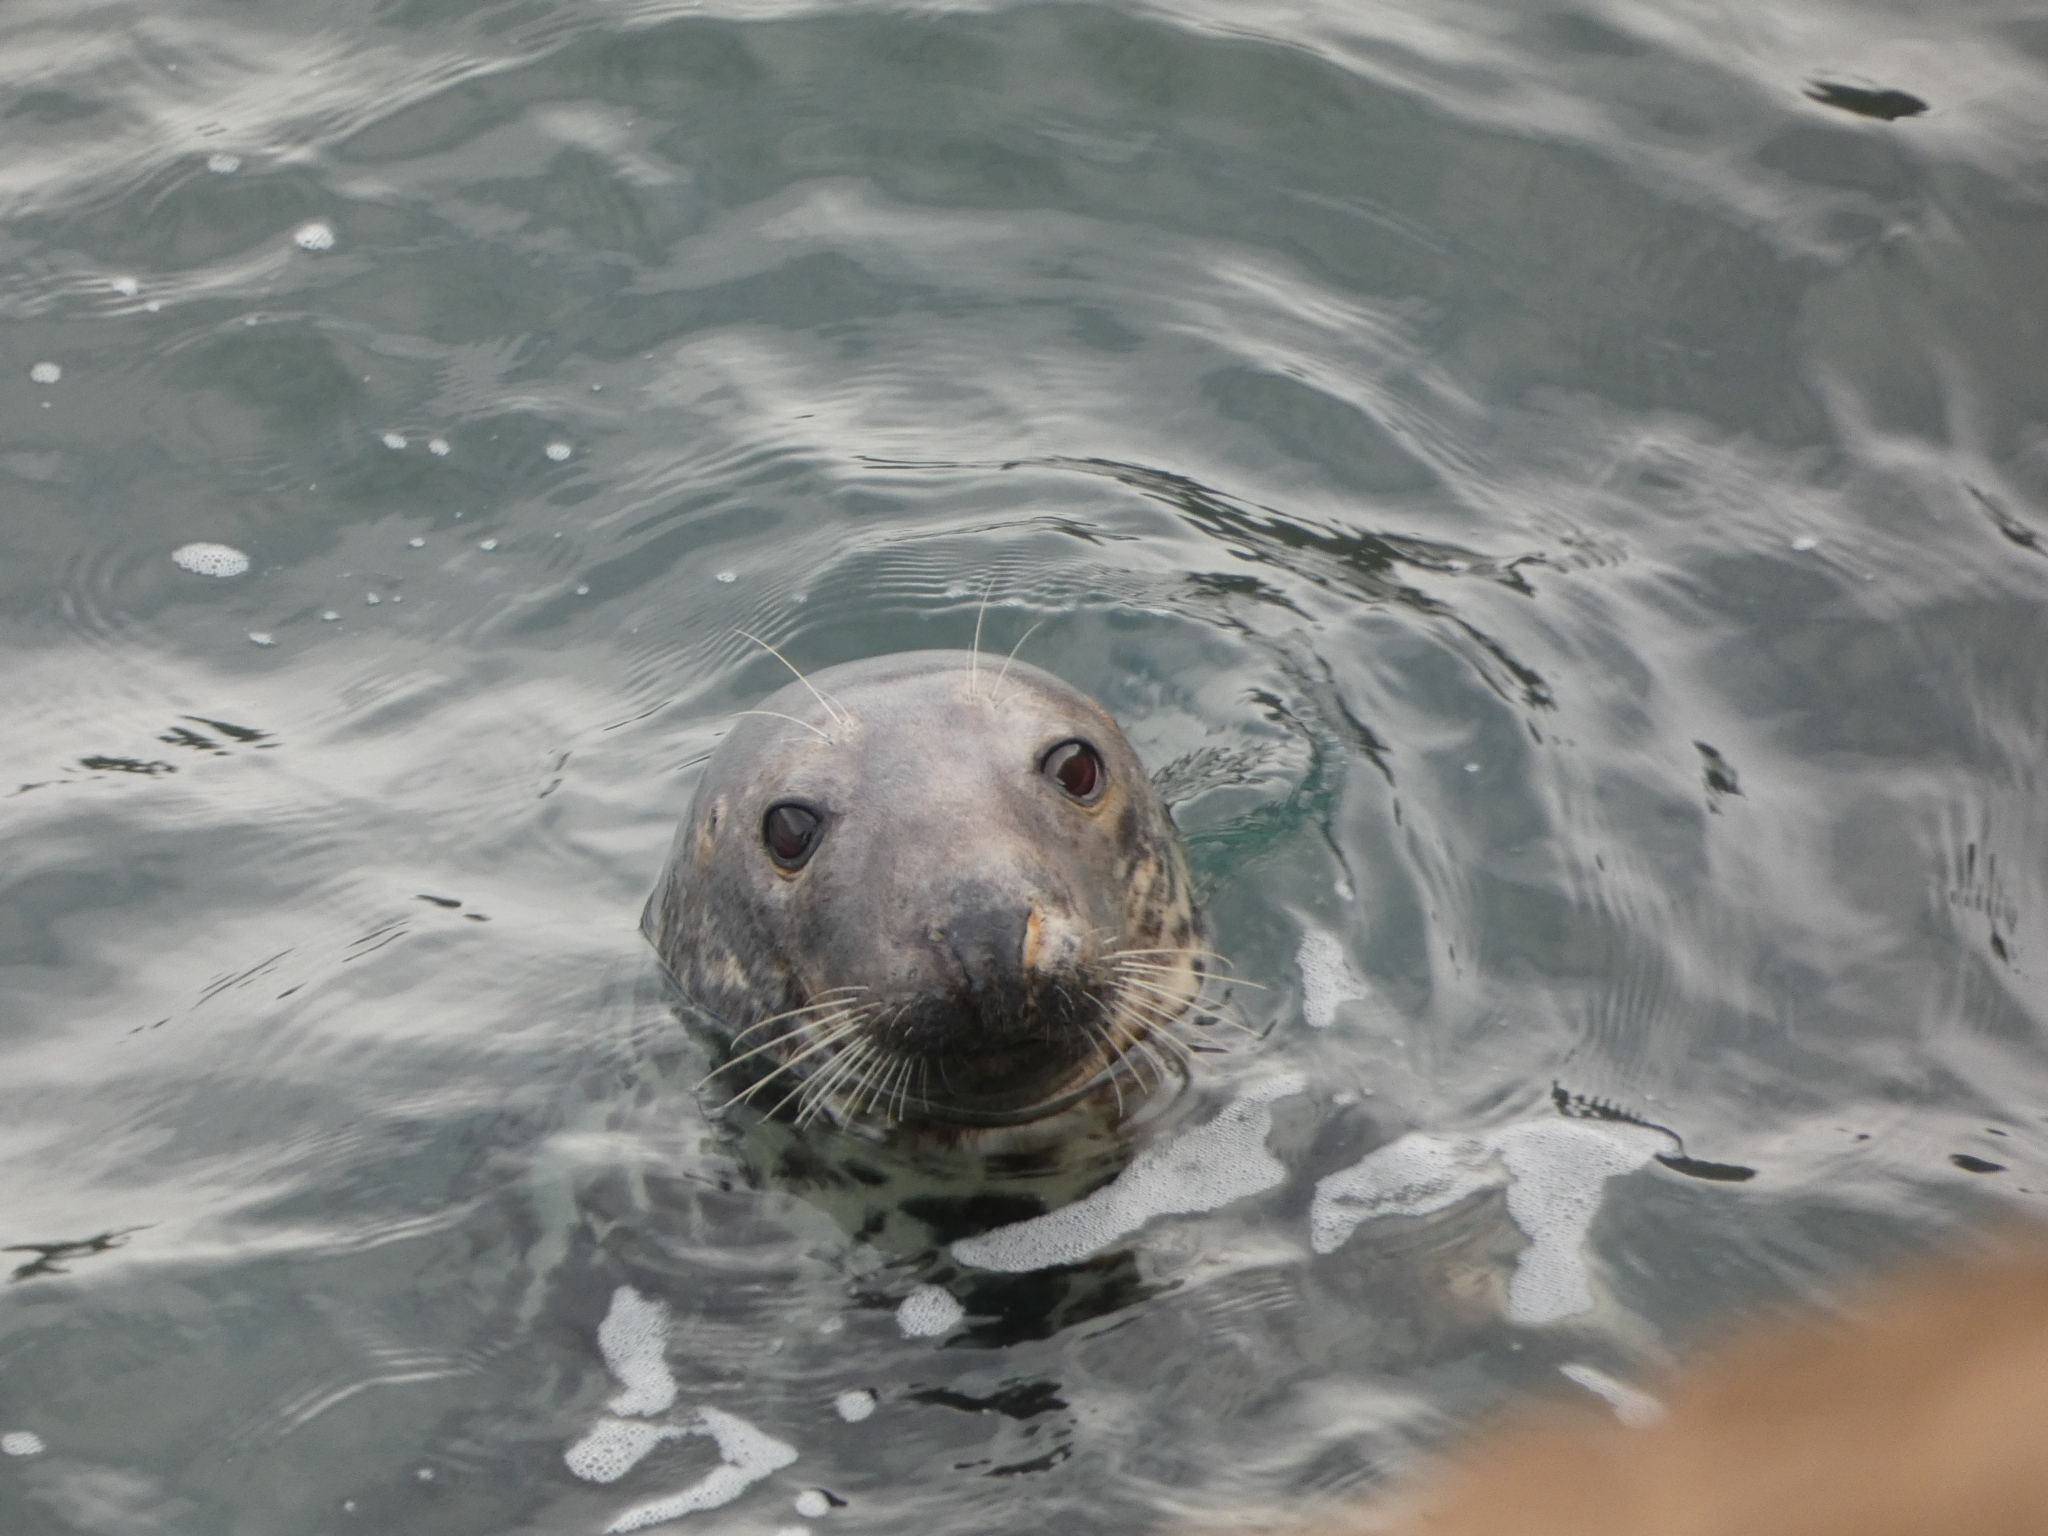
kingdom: Animalia
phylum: Chordata
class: Mammalia
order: Carnivora
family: Phocidae
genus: Halichoerus
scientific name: Halichoerus grypus
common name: Grey seal
